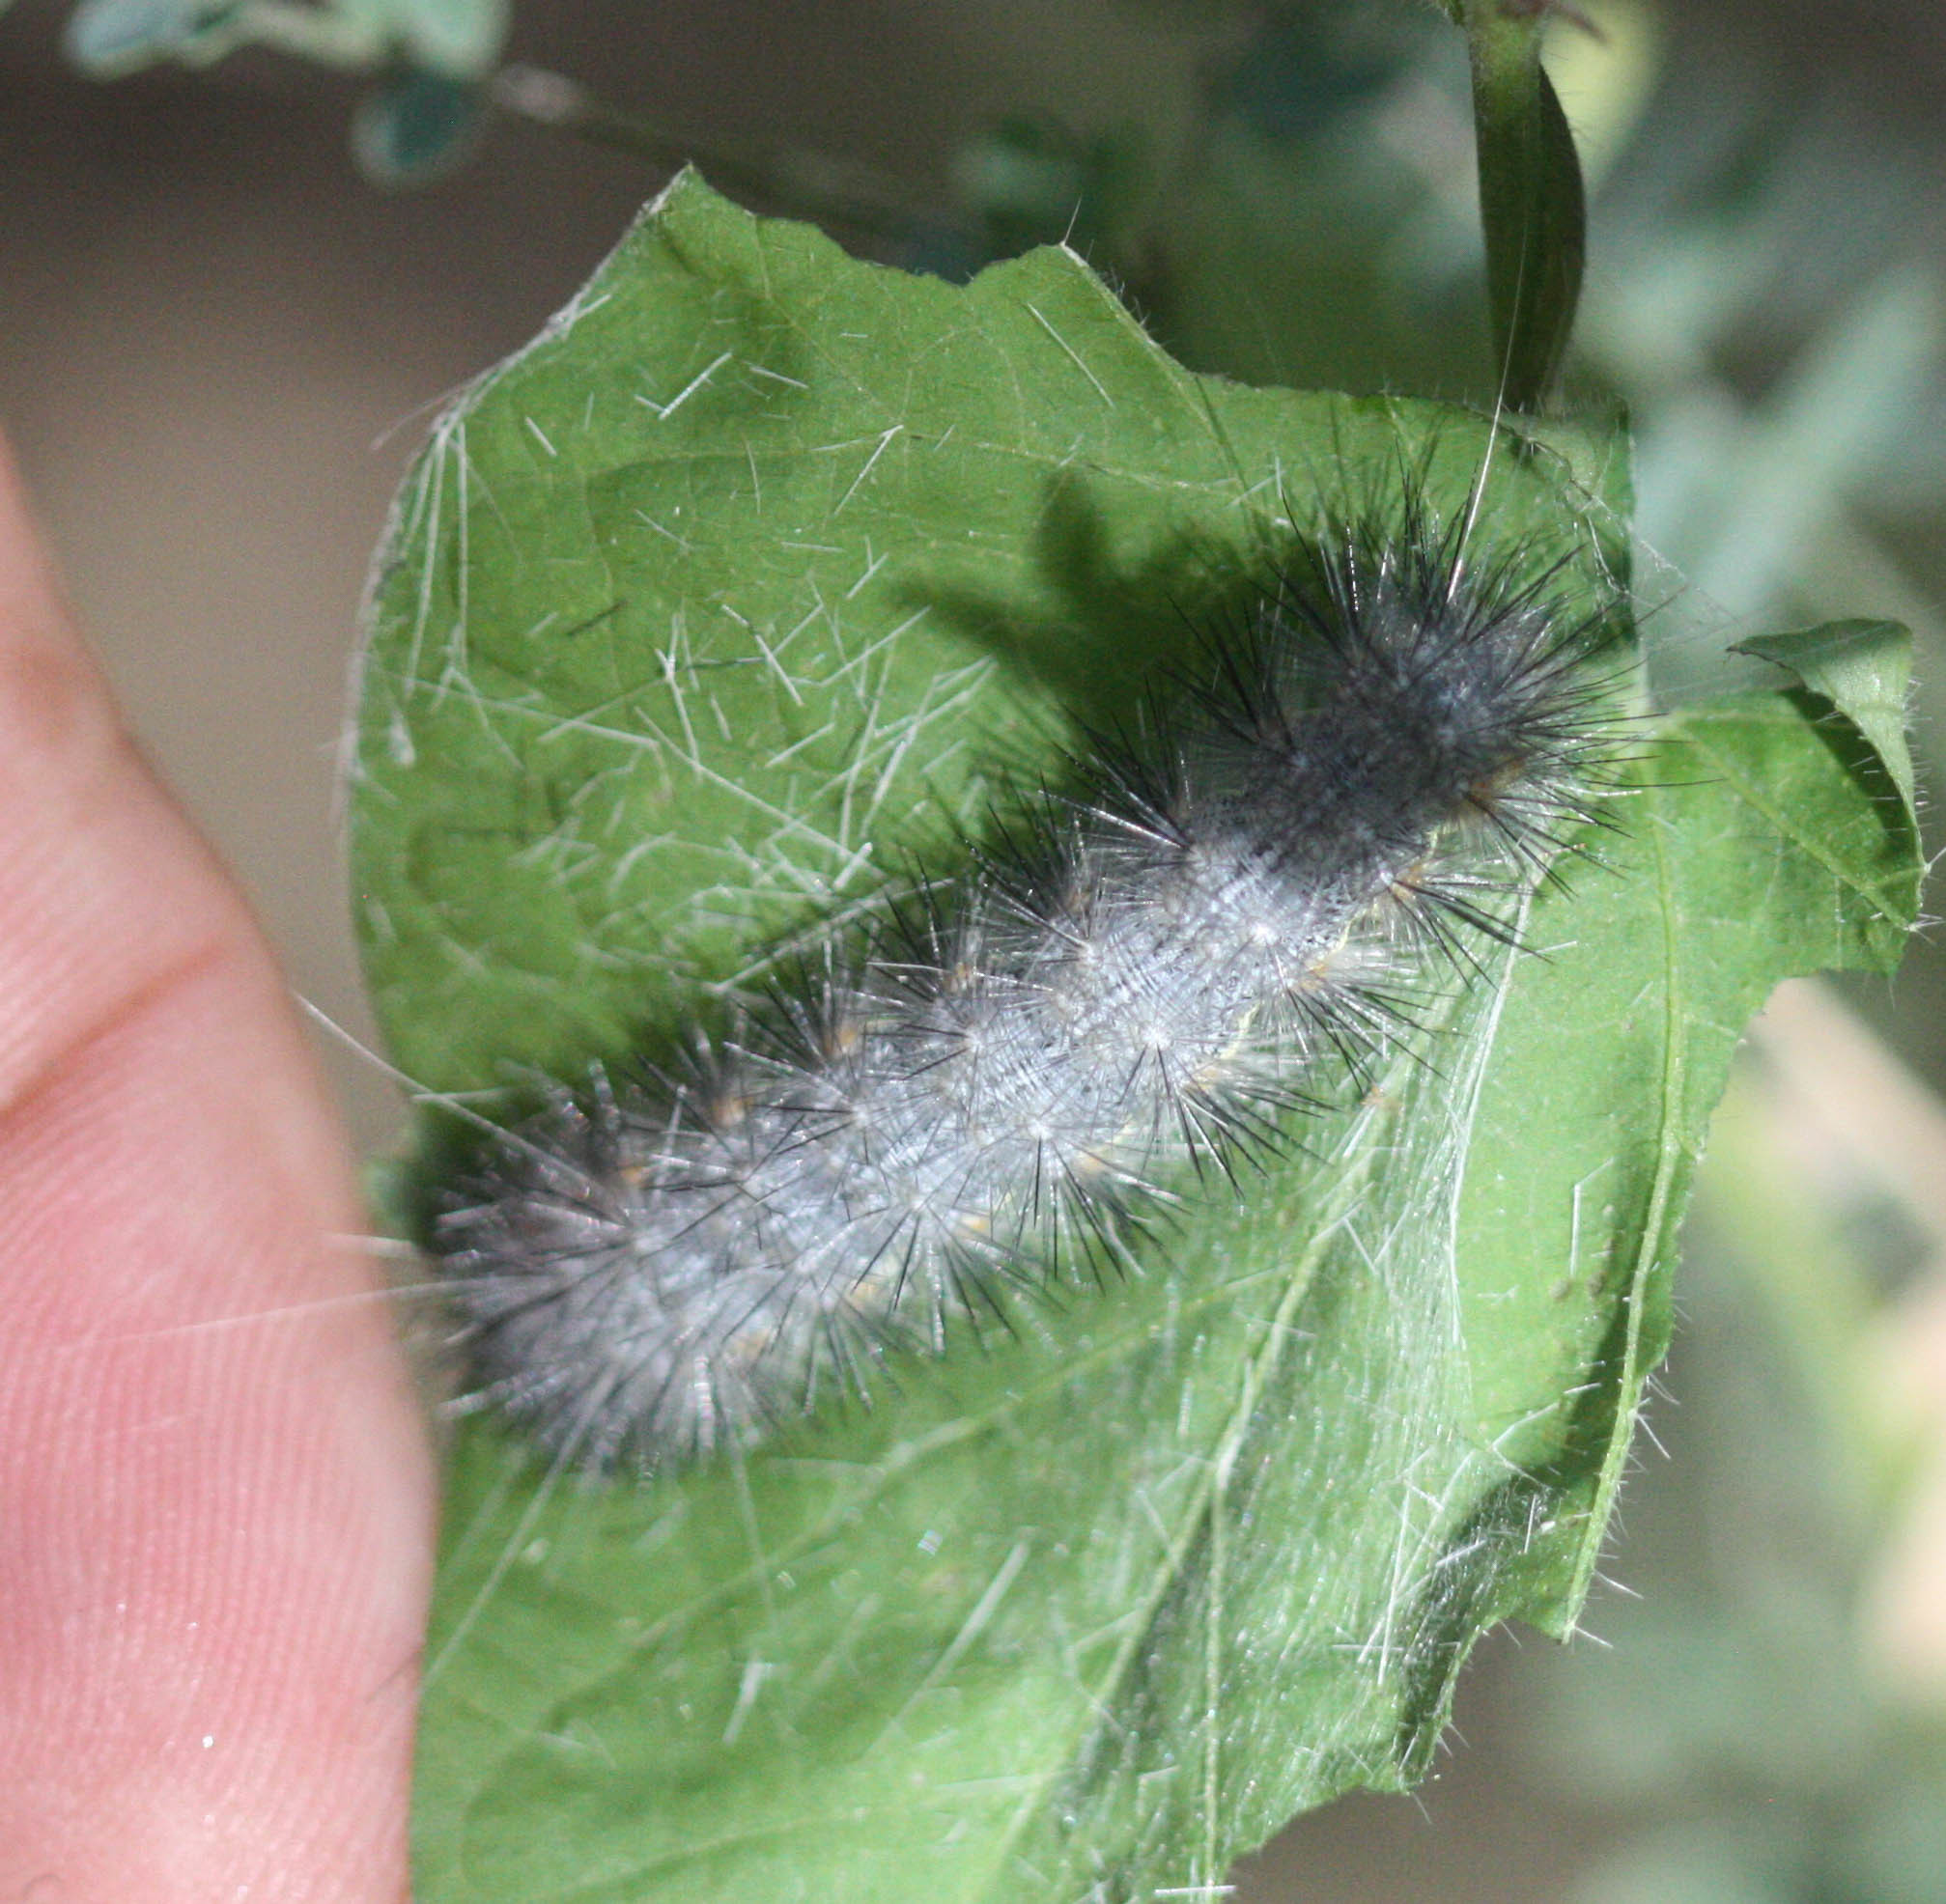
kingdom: Animalia
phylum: Arthropoda
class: Insecta
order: Lepidoptera
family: Erebidae
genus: Hypercompe
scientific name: Hypercompe suffusa
